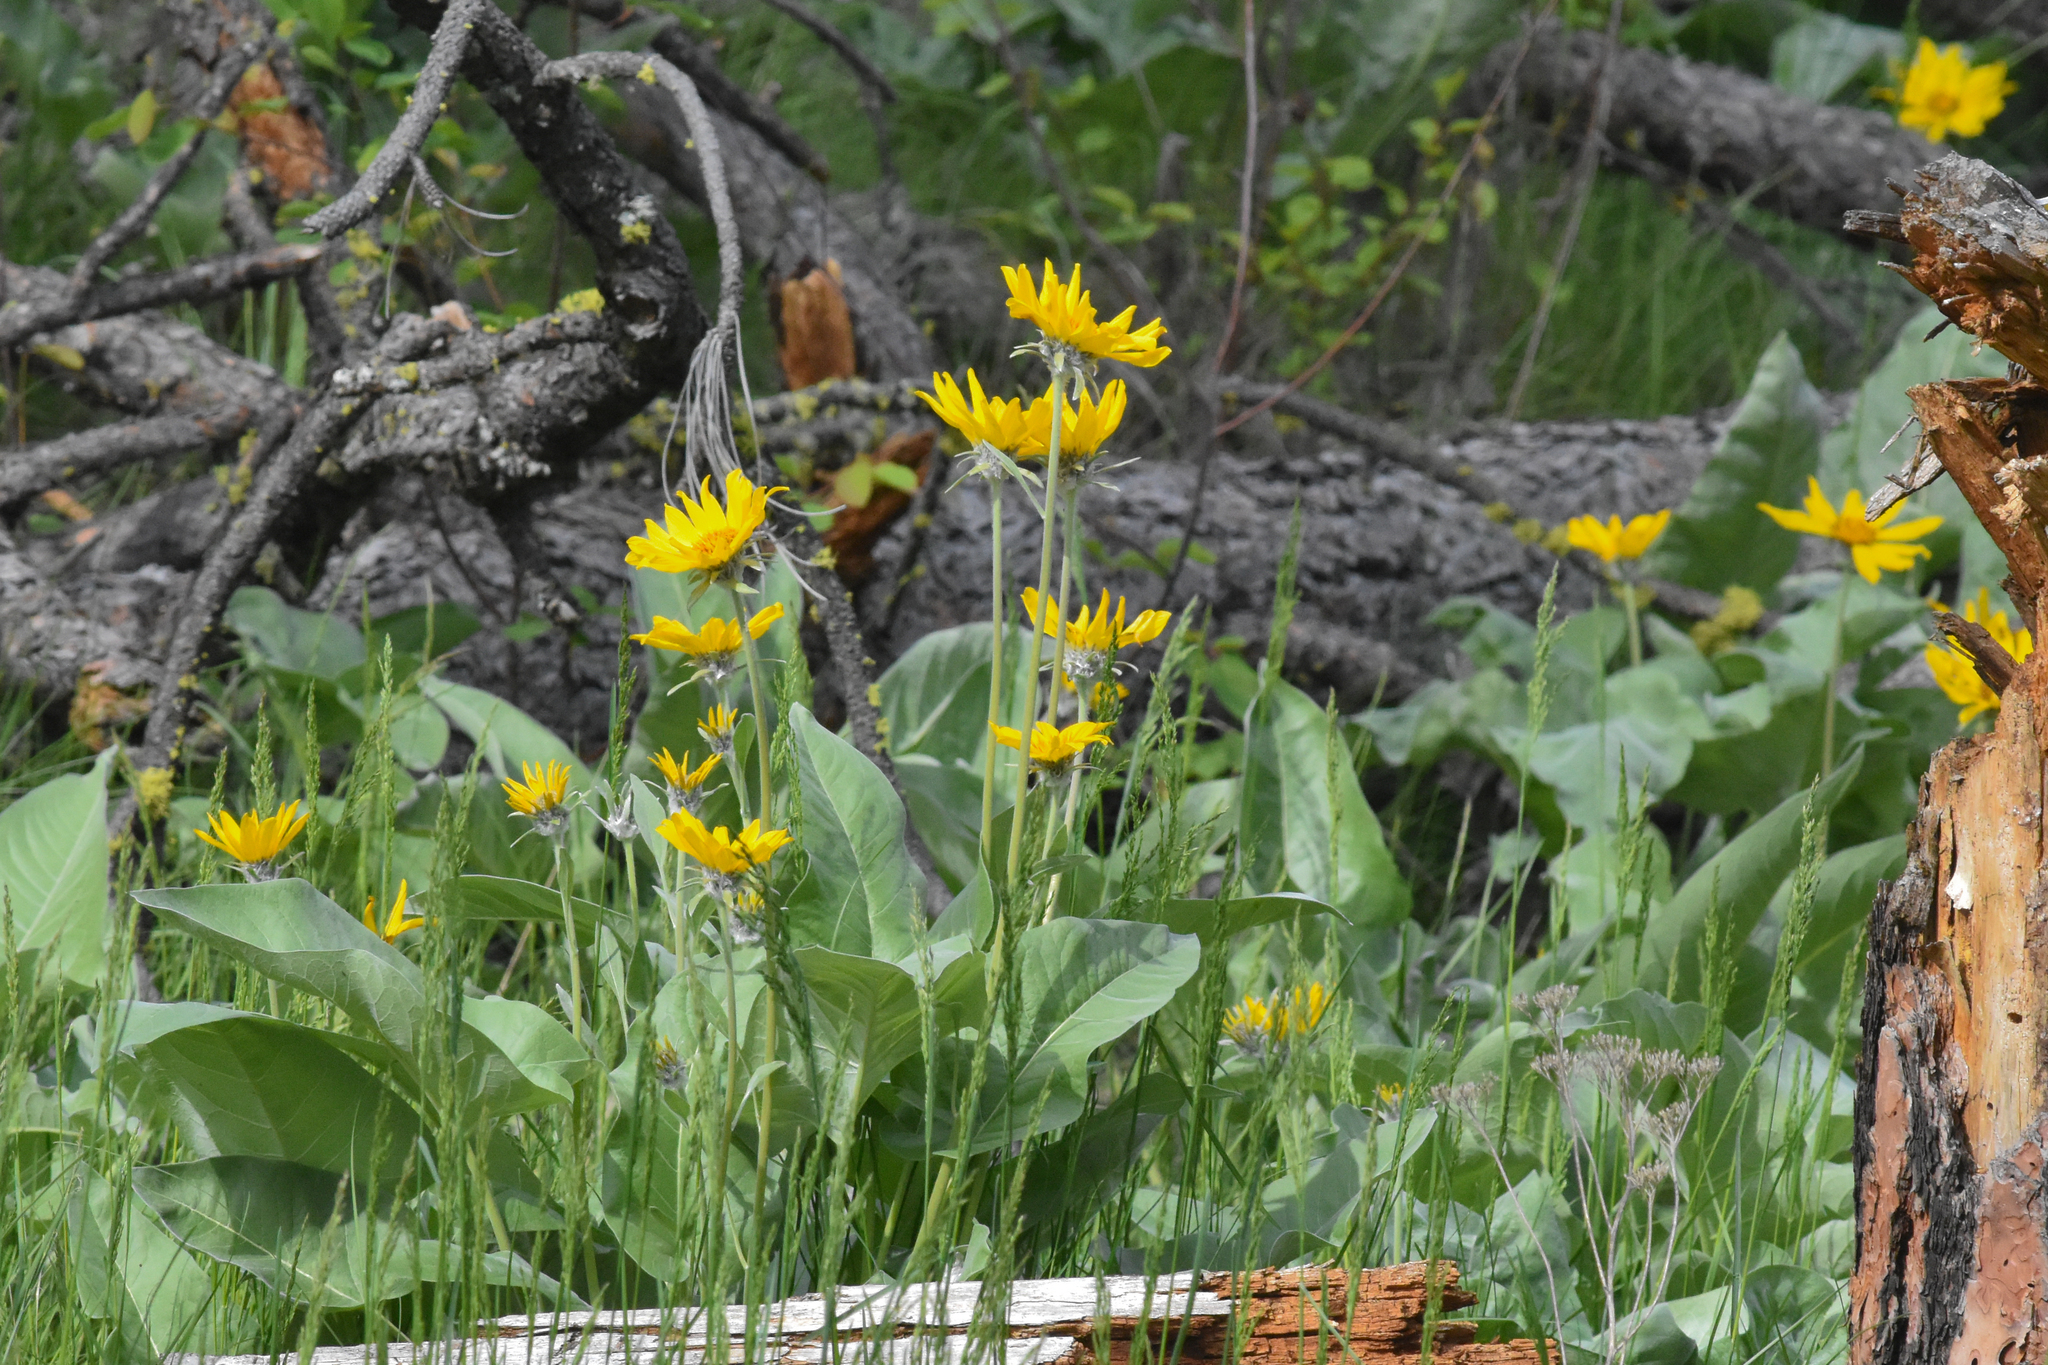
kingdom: Plantae
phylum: Tracheophyta
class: Magnoliopsida
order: Asterales
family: Asteraceae
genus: Wyethia
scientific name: Wyethia sagittata
